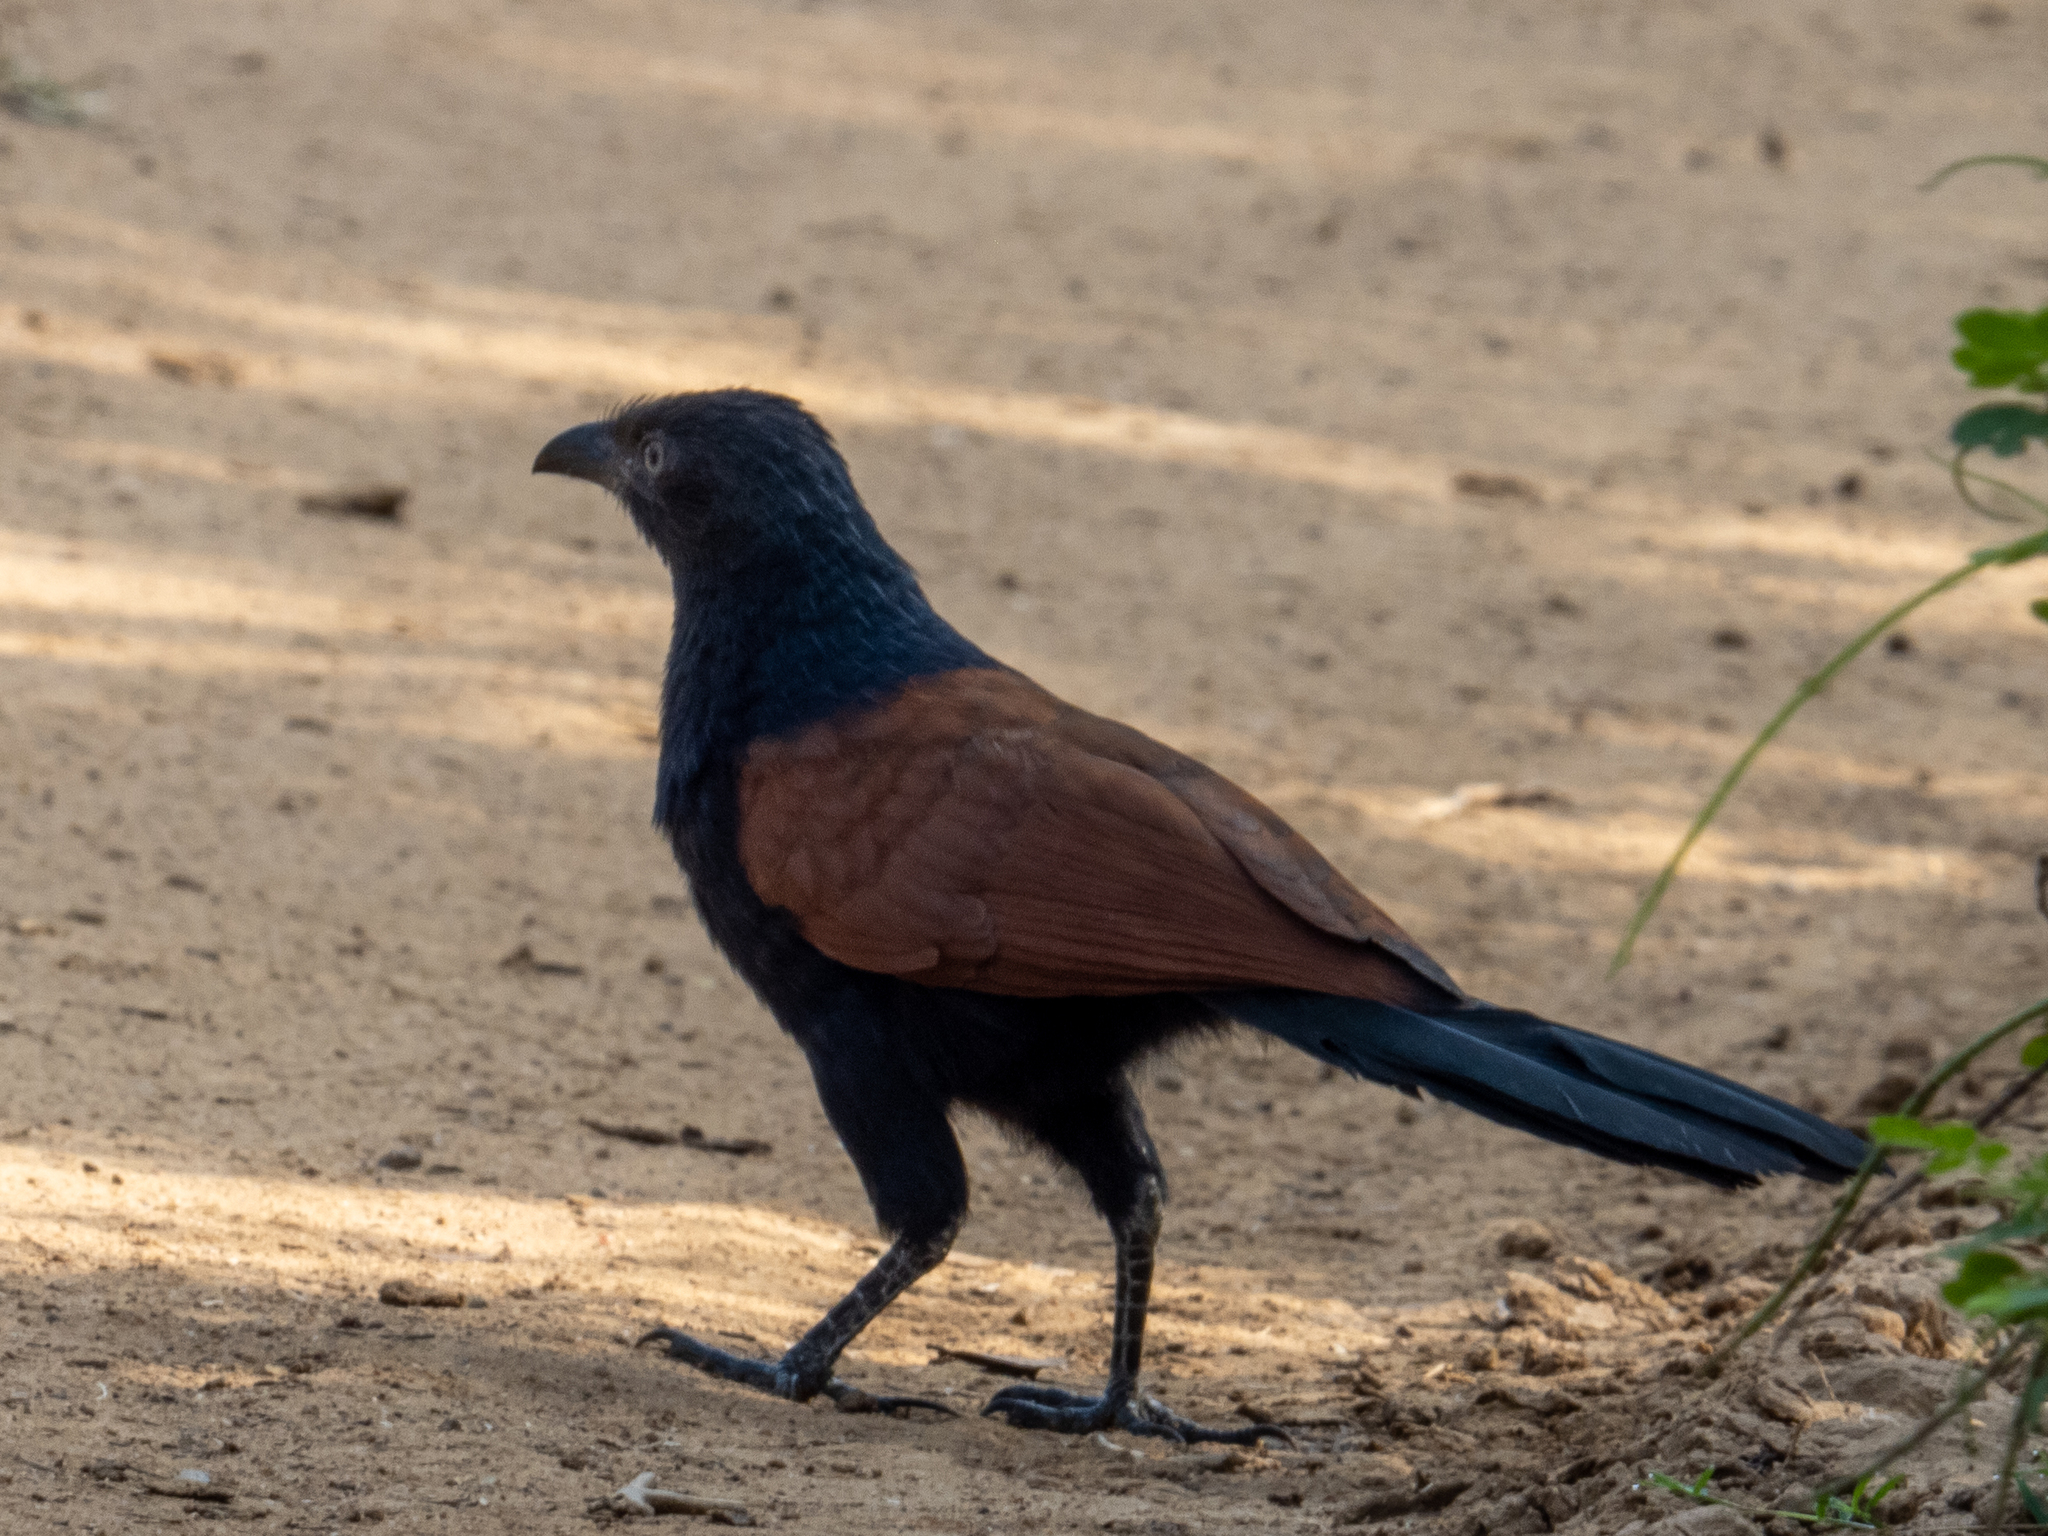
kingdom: Animalia
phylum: Chordata
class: Aves
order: Cuculiformes
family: Cuculidae
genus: Centropus
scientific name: Centropus sinensis
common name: Greater coucal
